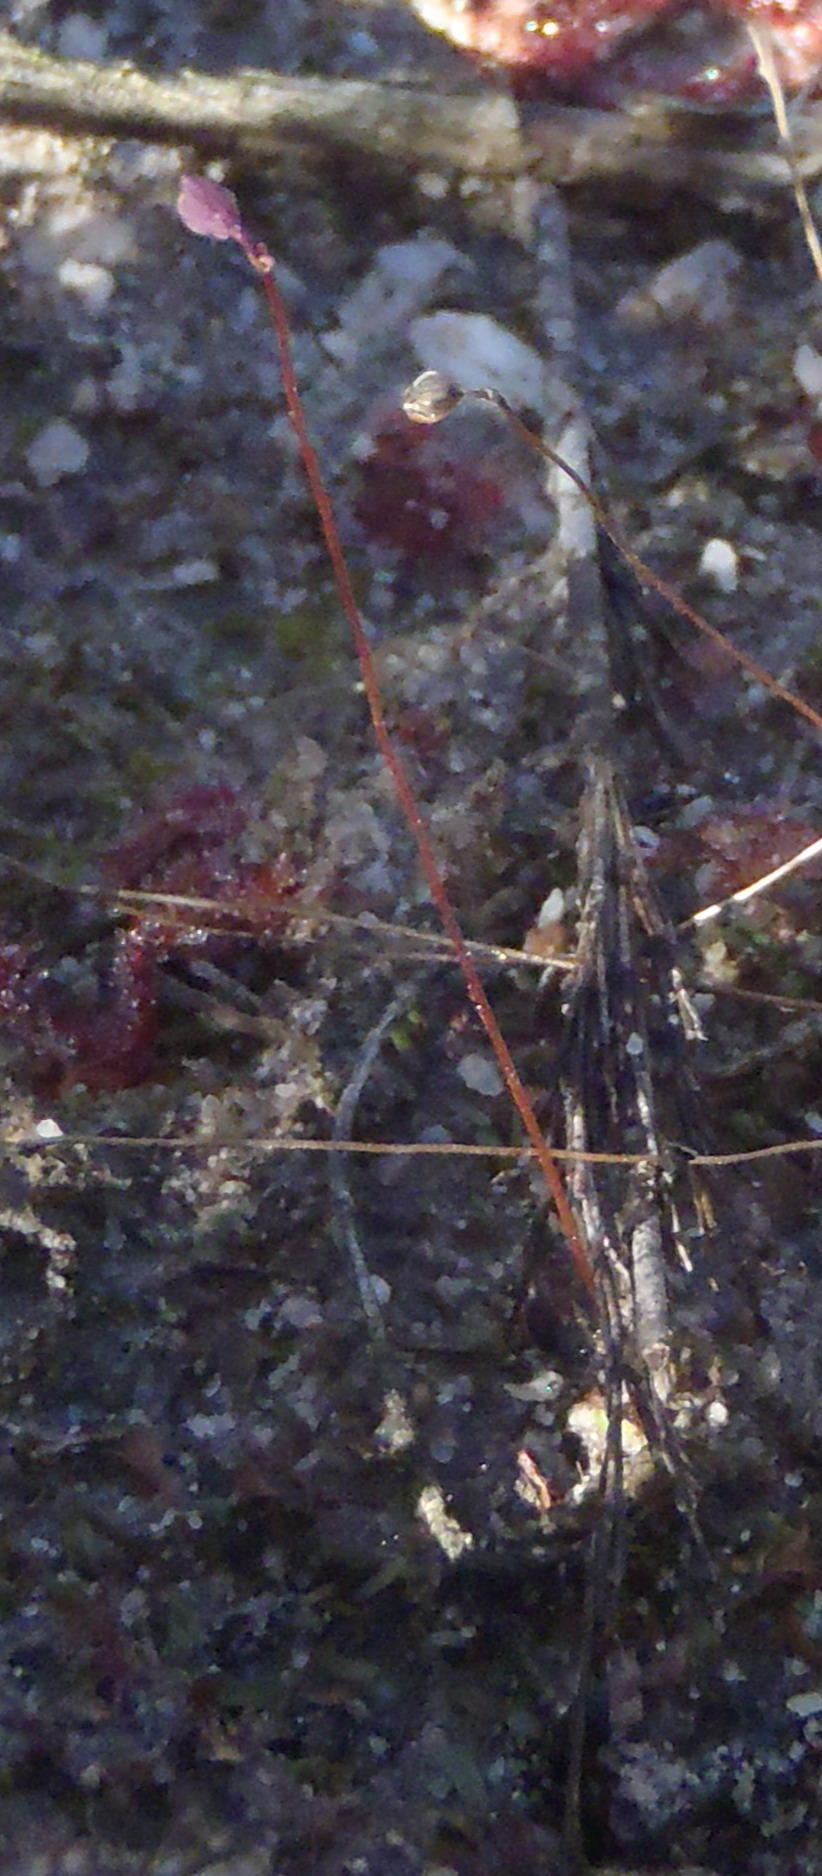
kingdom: Plantae
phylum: Tracheophyta
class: Magnoliopsida
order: Lamiales
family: Lentibulariaceae
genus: Utricularia
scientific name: Utricularia bisquamata
